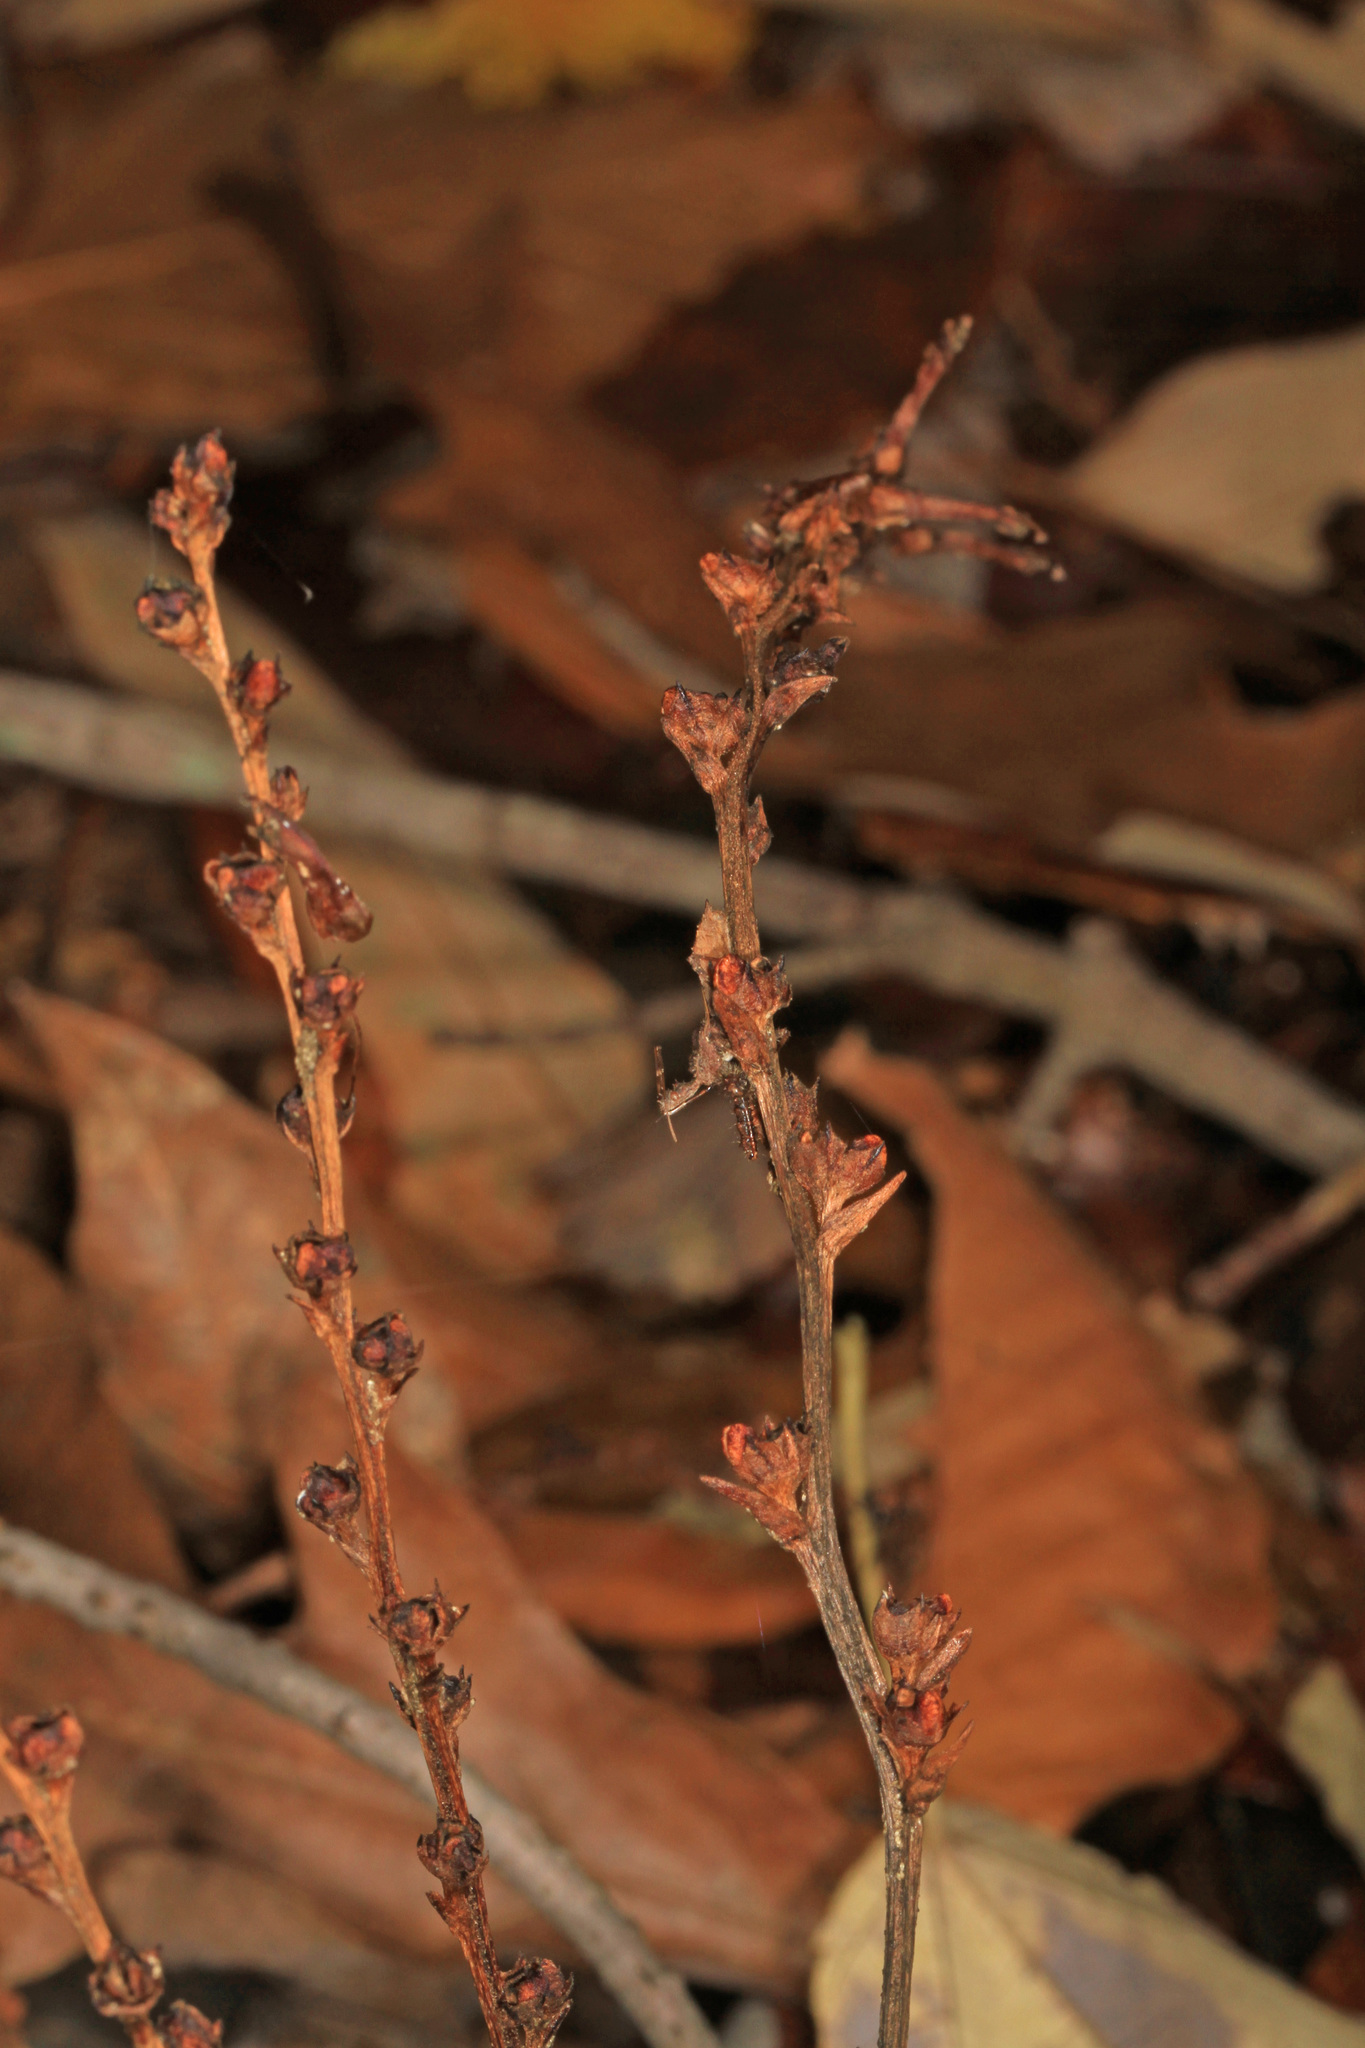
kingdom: Plantae
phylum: Tracheophyta
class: Magnoliopsida
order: Lamiales
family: Orobanchaceae
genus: Epifagus
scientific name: Epifagus virginiana
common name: Beechdrops
